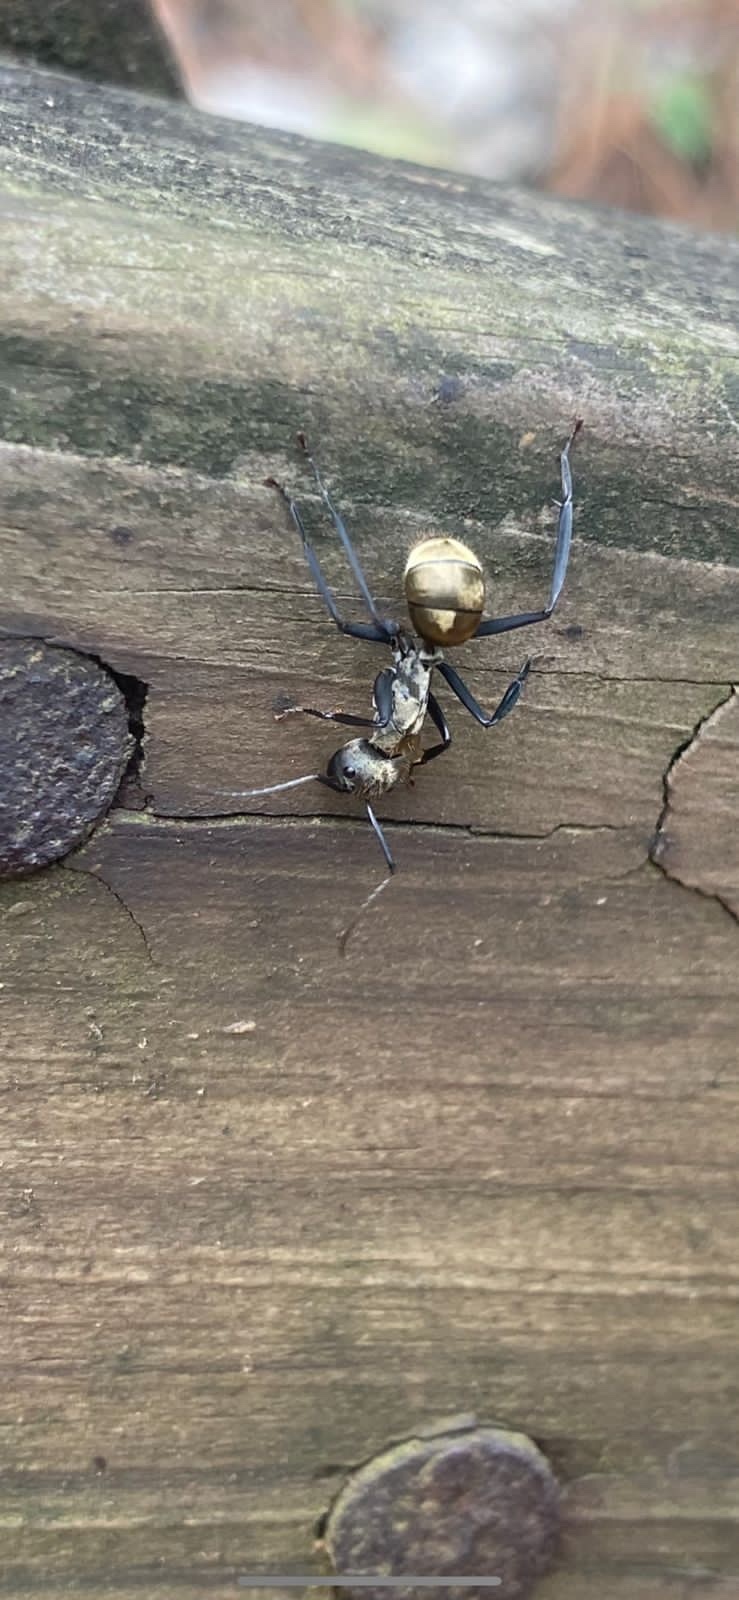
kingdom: Animalia
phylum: Arthropoda
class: Insecta
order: Hymenoptera
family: Formicidae
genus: Camponotus
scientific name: Camponotus sericeiventris
